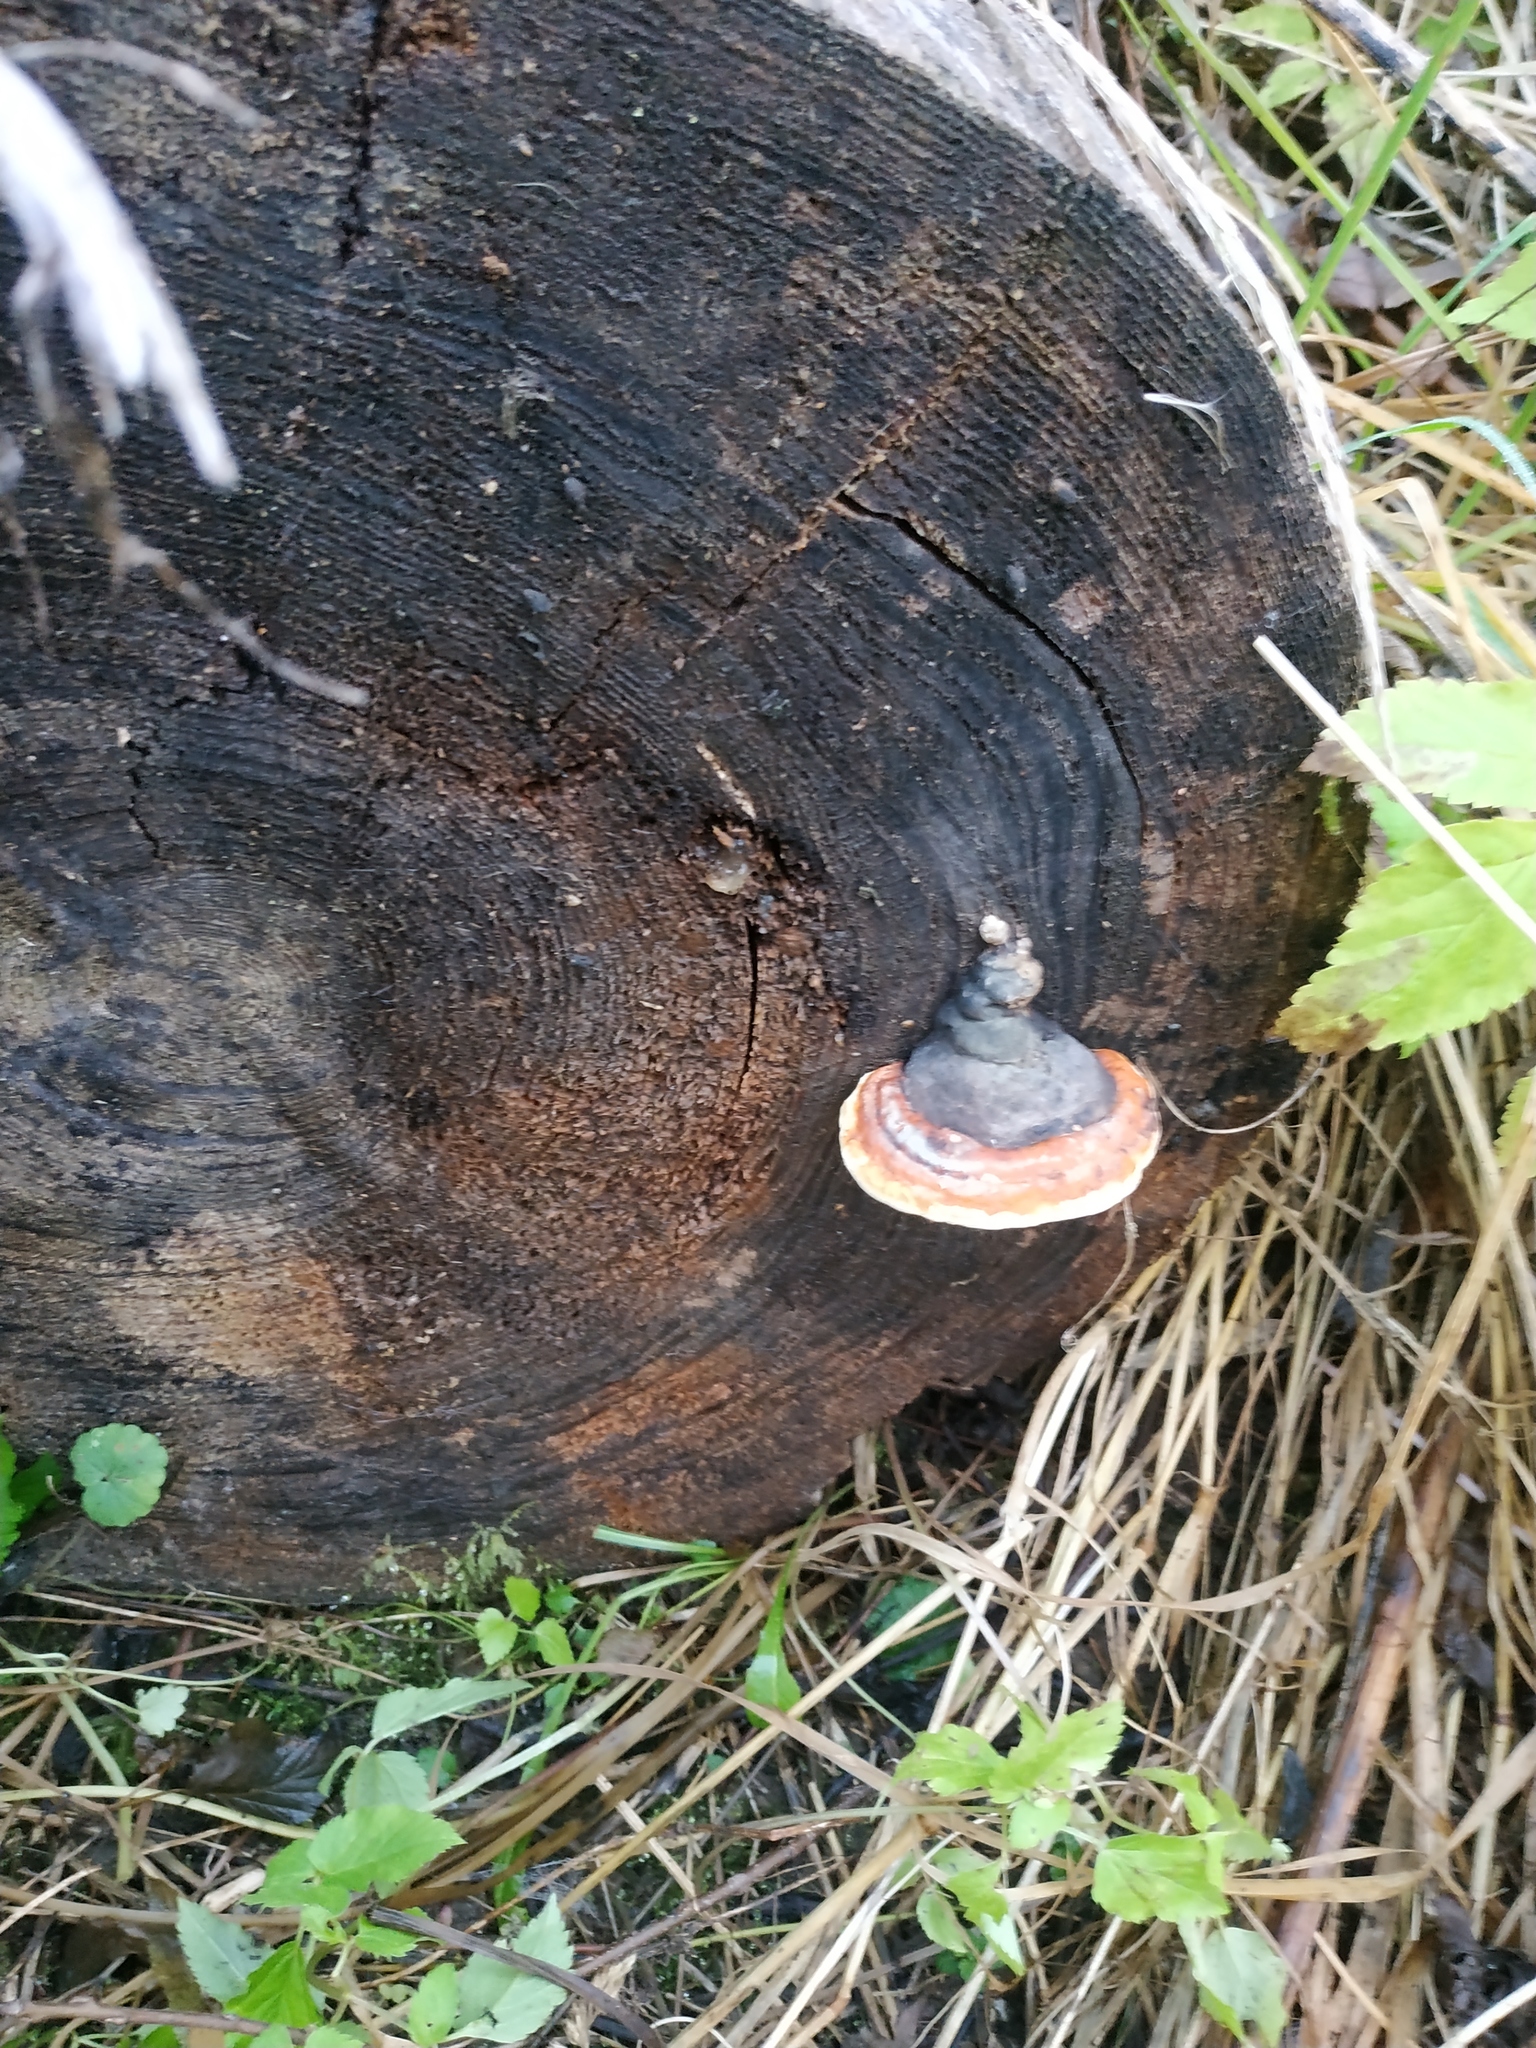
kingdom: Fungi
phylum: Basidiomycota
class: Agaricomycetes
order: Polyporales
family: Fomitopsidaceae
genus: Fomitopsis
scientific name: Fomitopsis pinicola
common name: Red-belted bracket
